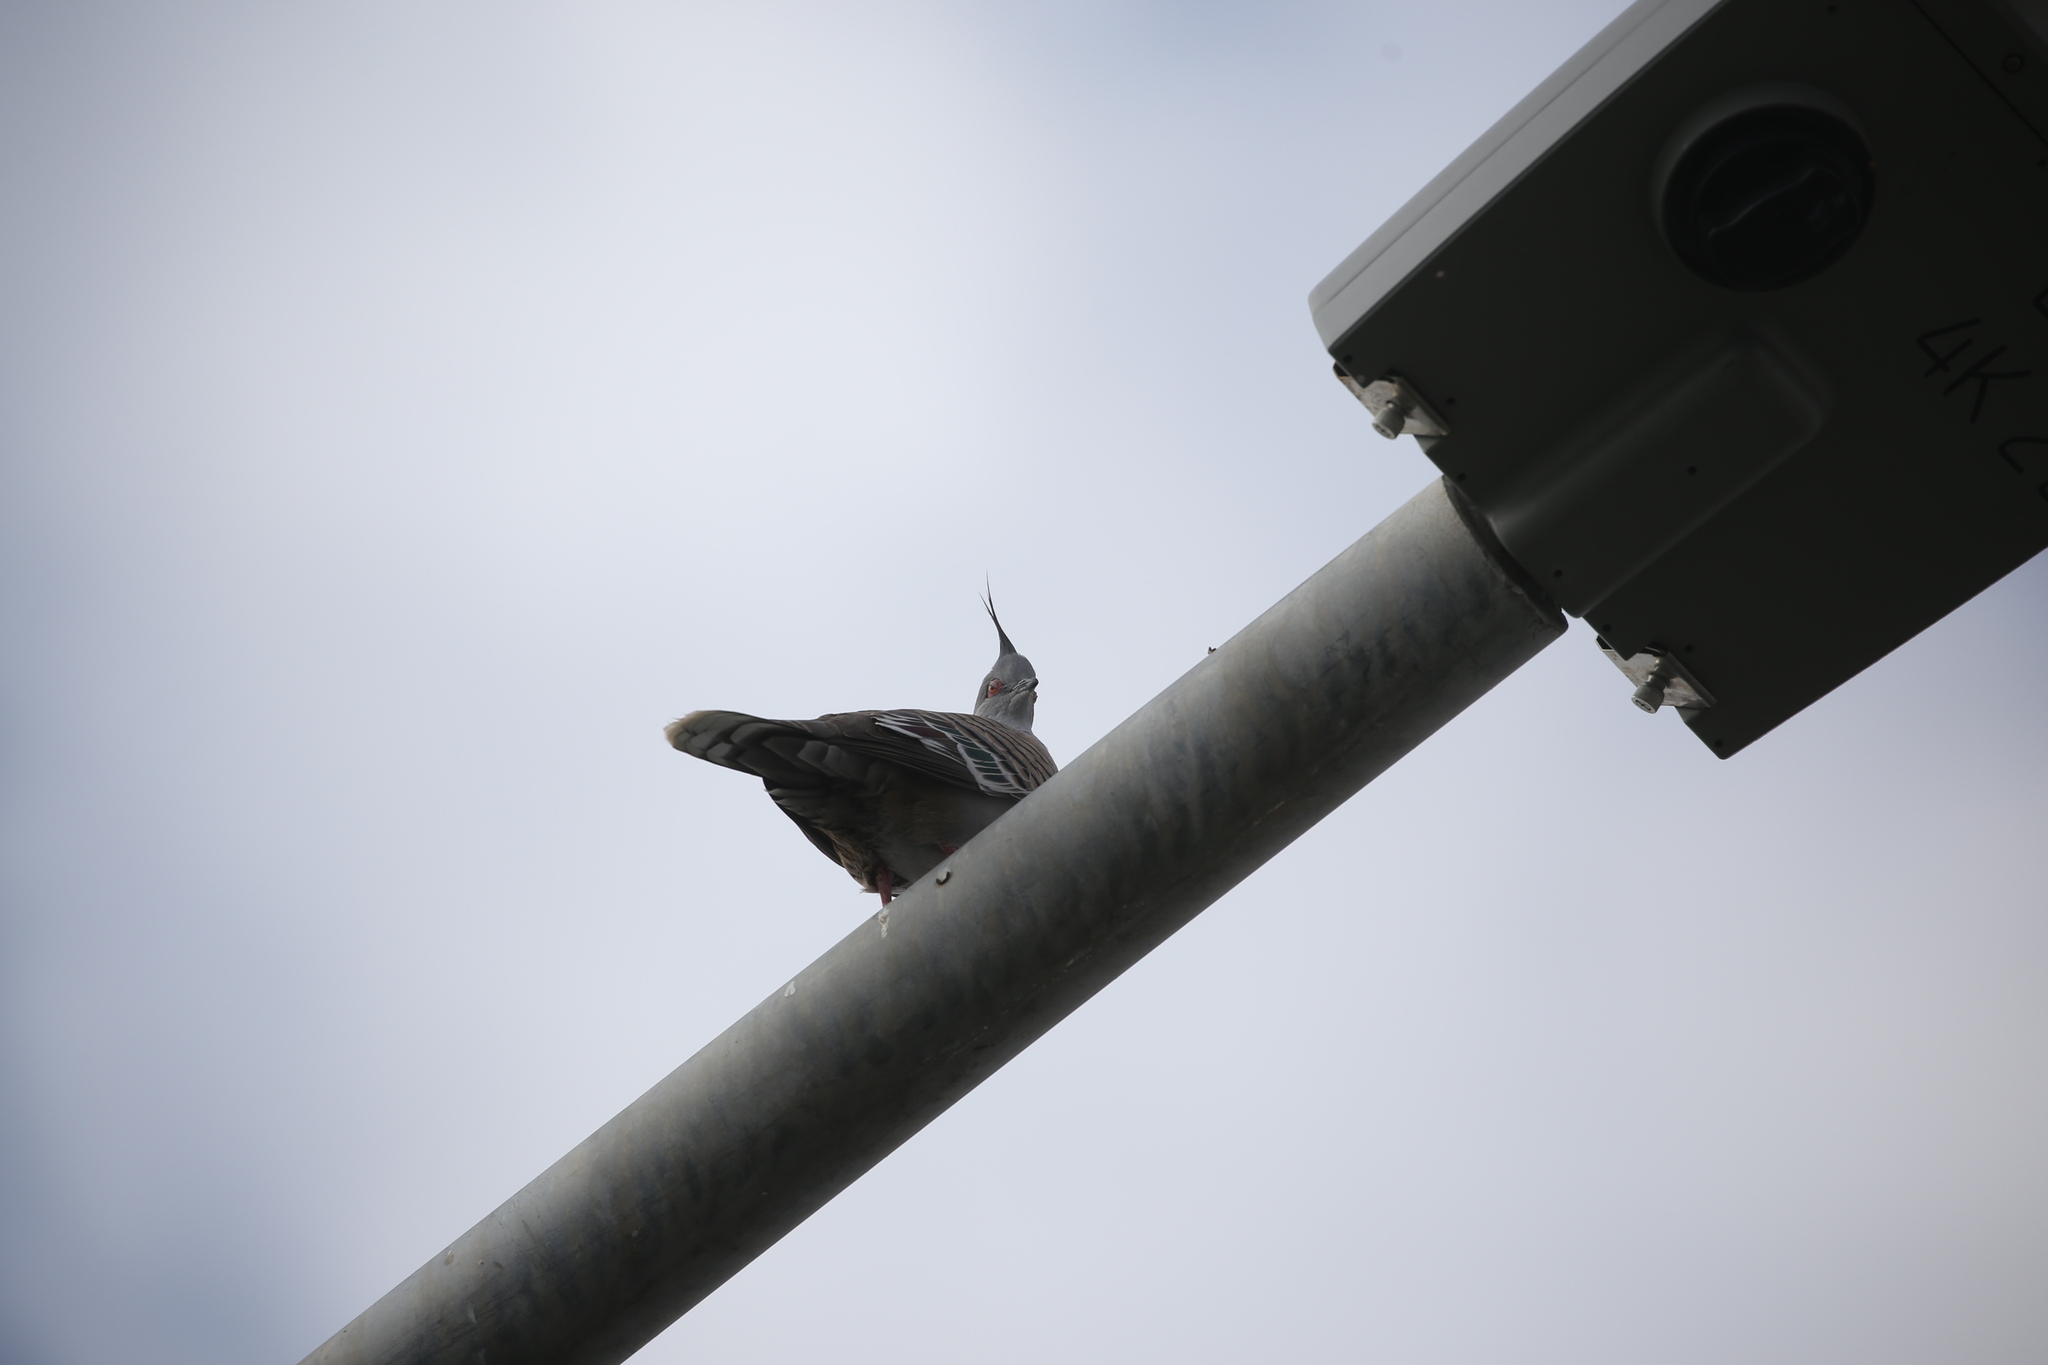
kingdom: Animalia
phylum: Chordata
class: Aves
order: Columbiformes
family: Columbidae
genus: Ocyphaps
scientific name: Ocyphaps lophotes
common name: Crested pigeon
